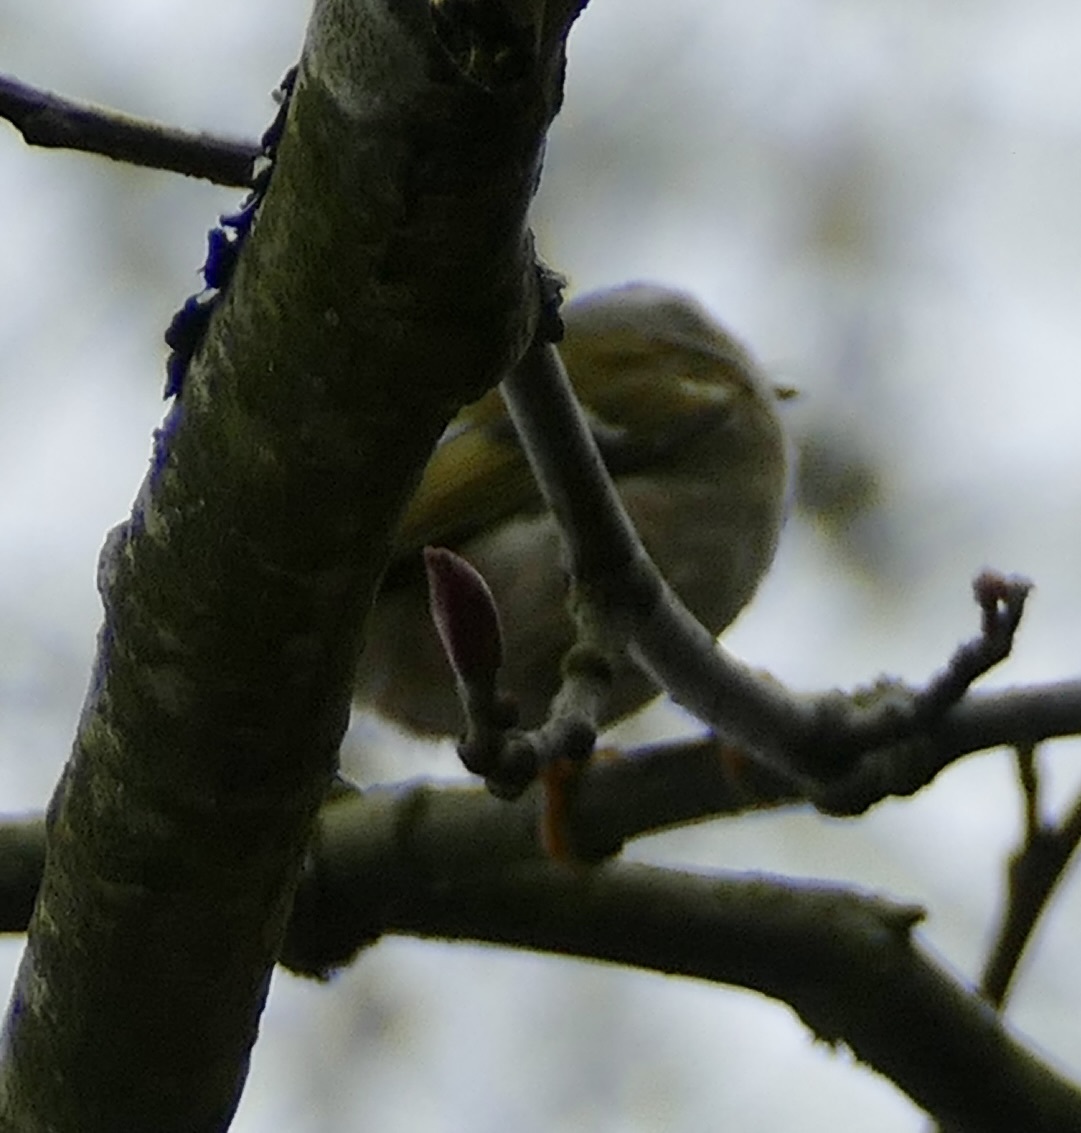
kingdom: Animalia
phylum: Chordata
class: Aves
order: Passeriformes
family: Regulidae
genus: Regulus
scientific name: Regulus satrapa
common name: Golden-crowned kinglet
